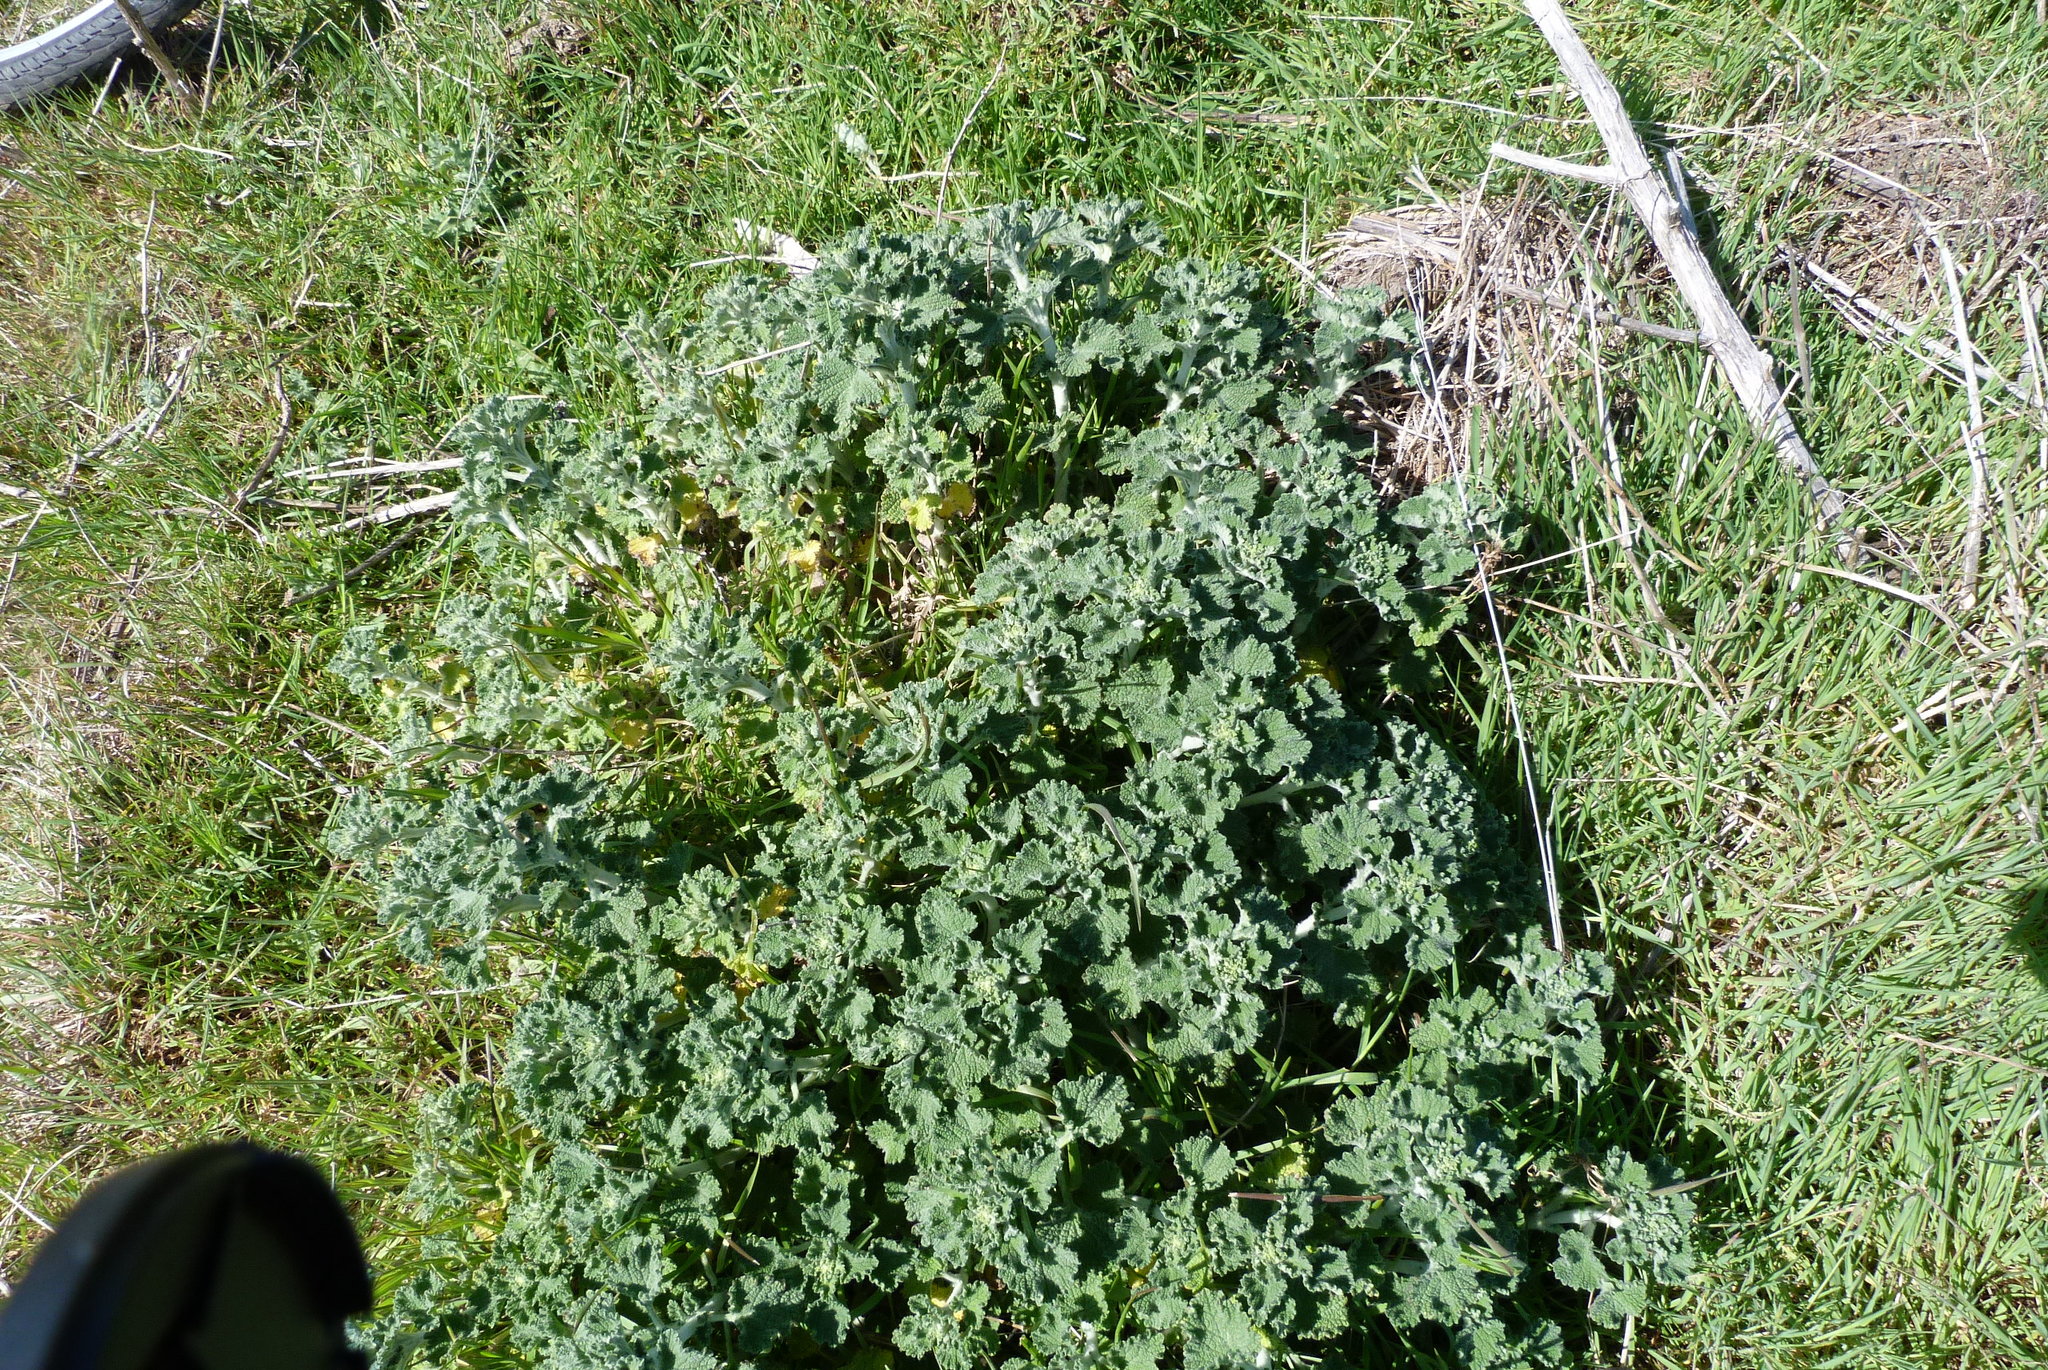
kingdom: Plantae
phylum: Tracheophyta
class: Magnoliopsida
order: Lamiales
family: Lamiaceae
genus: Marrubium
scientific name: Marrubium vulgare
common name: Horehound
